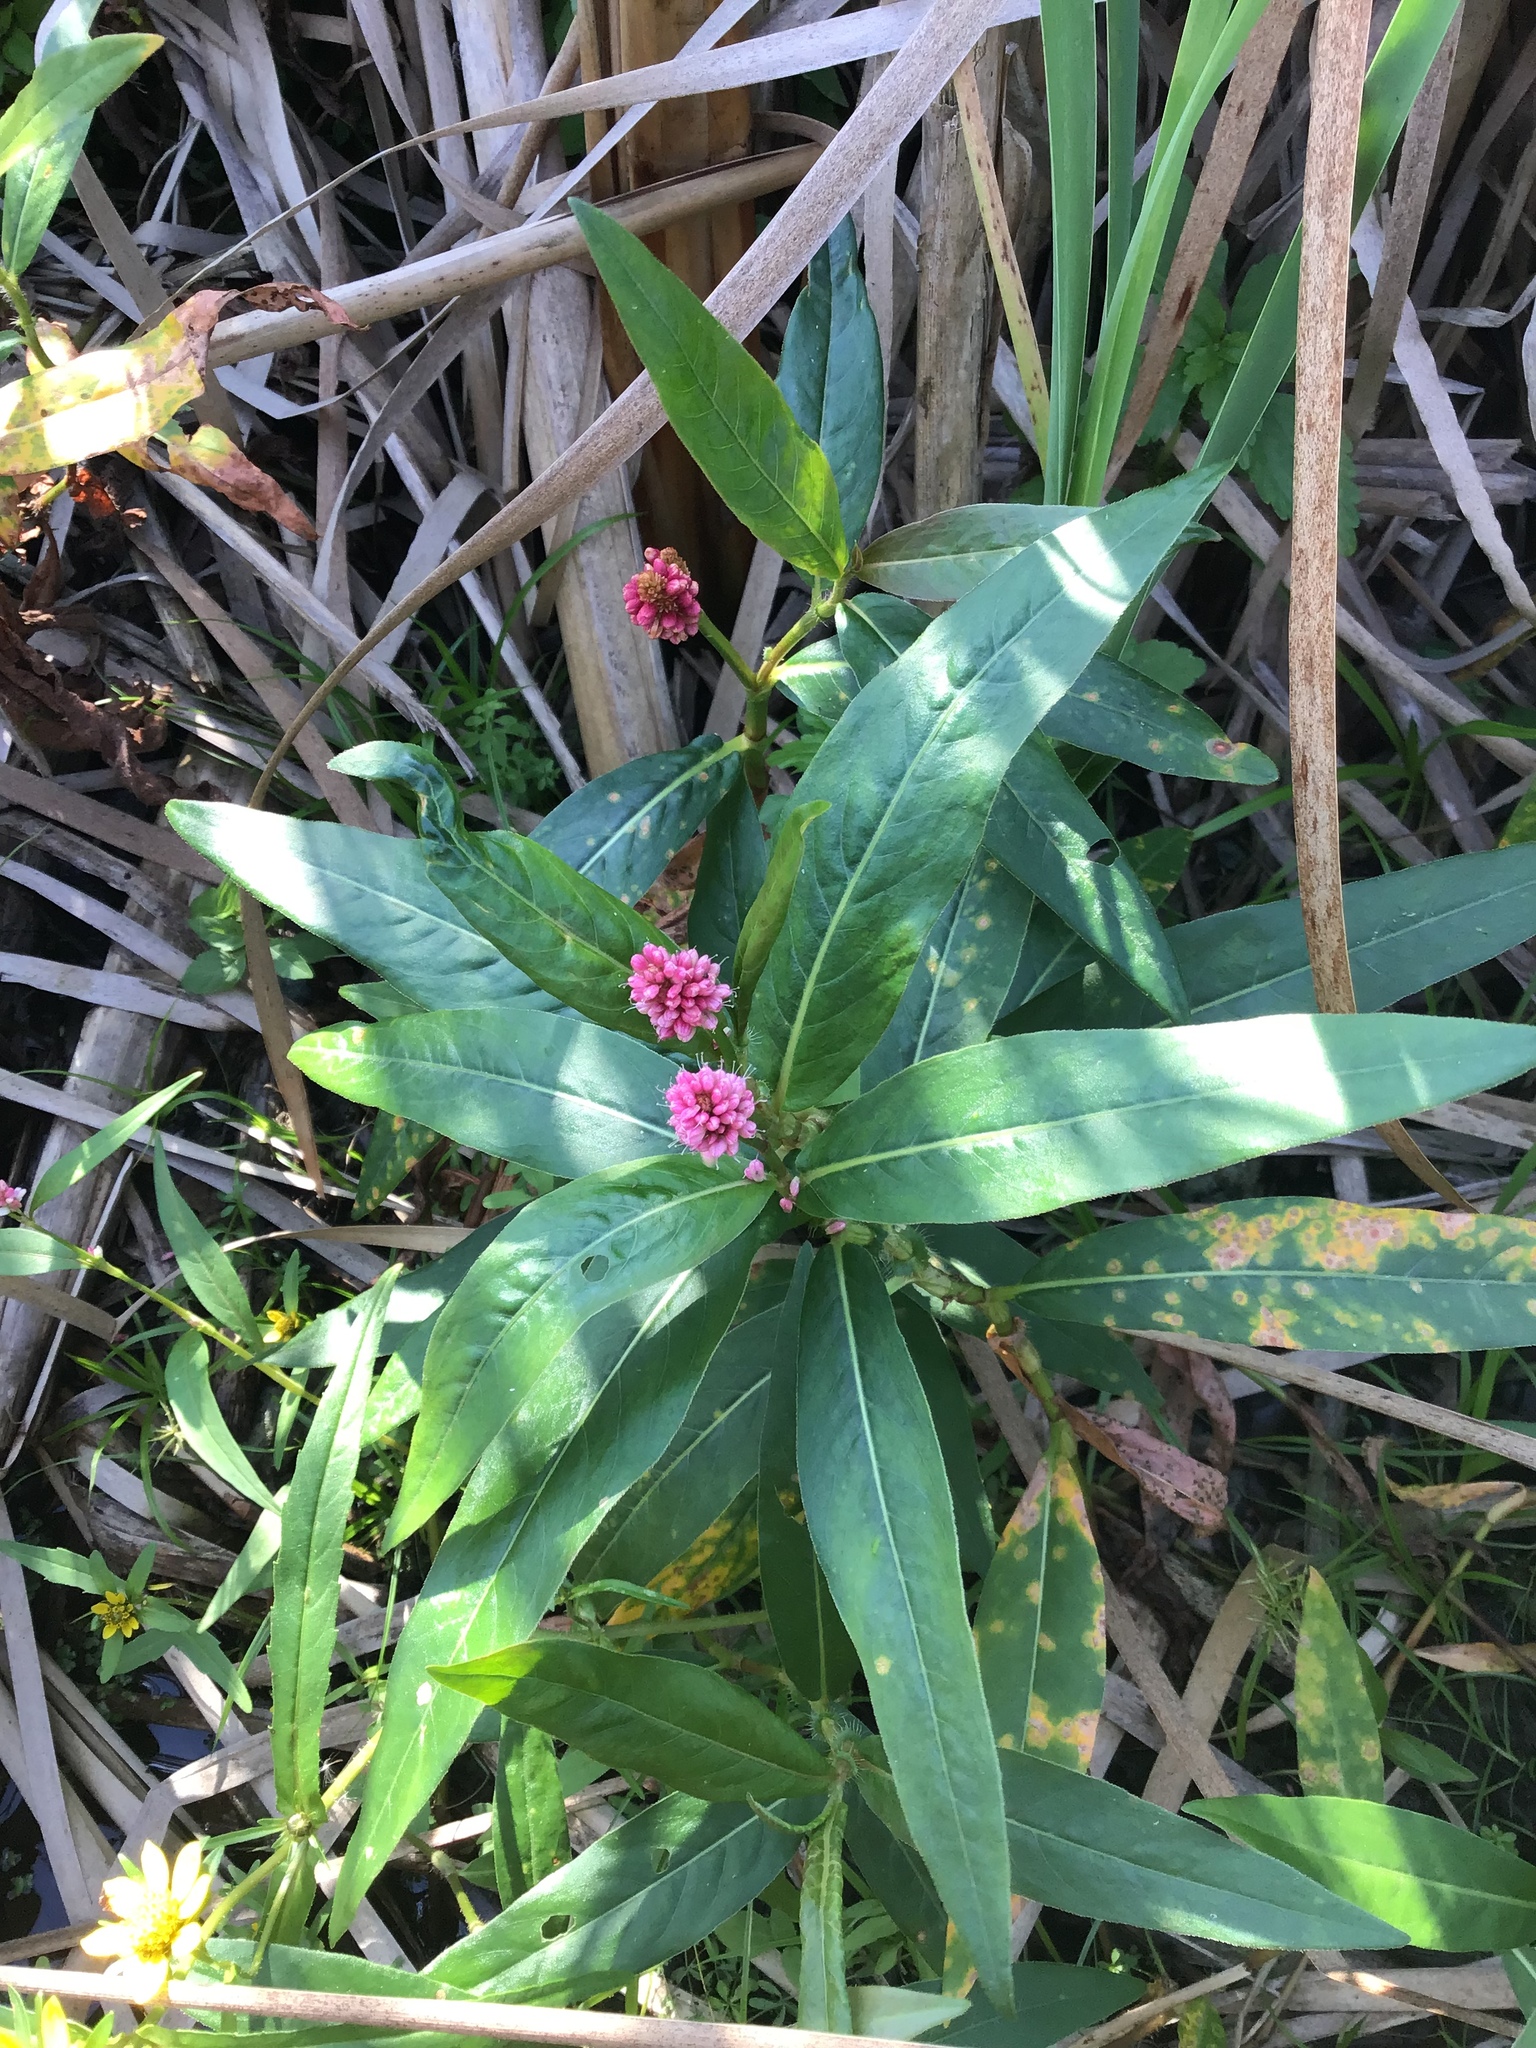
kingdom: Plantae
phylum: Tracheophyta
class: Magnoliopsida
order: Caryophyllales
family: Polygonaceae
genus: Persicaria
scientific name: Persicaria amphibia
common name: Amphibious bistort
